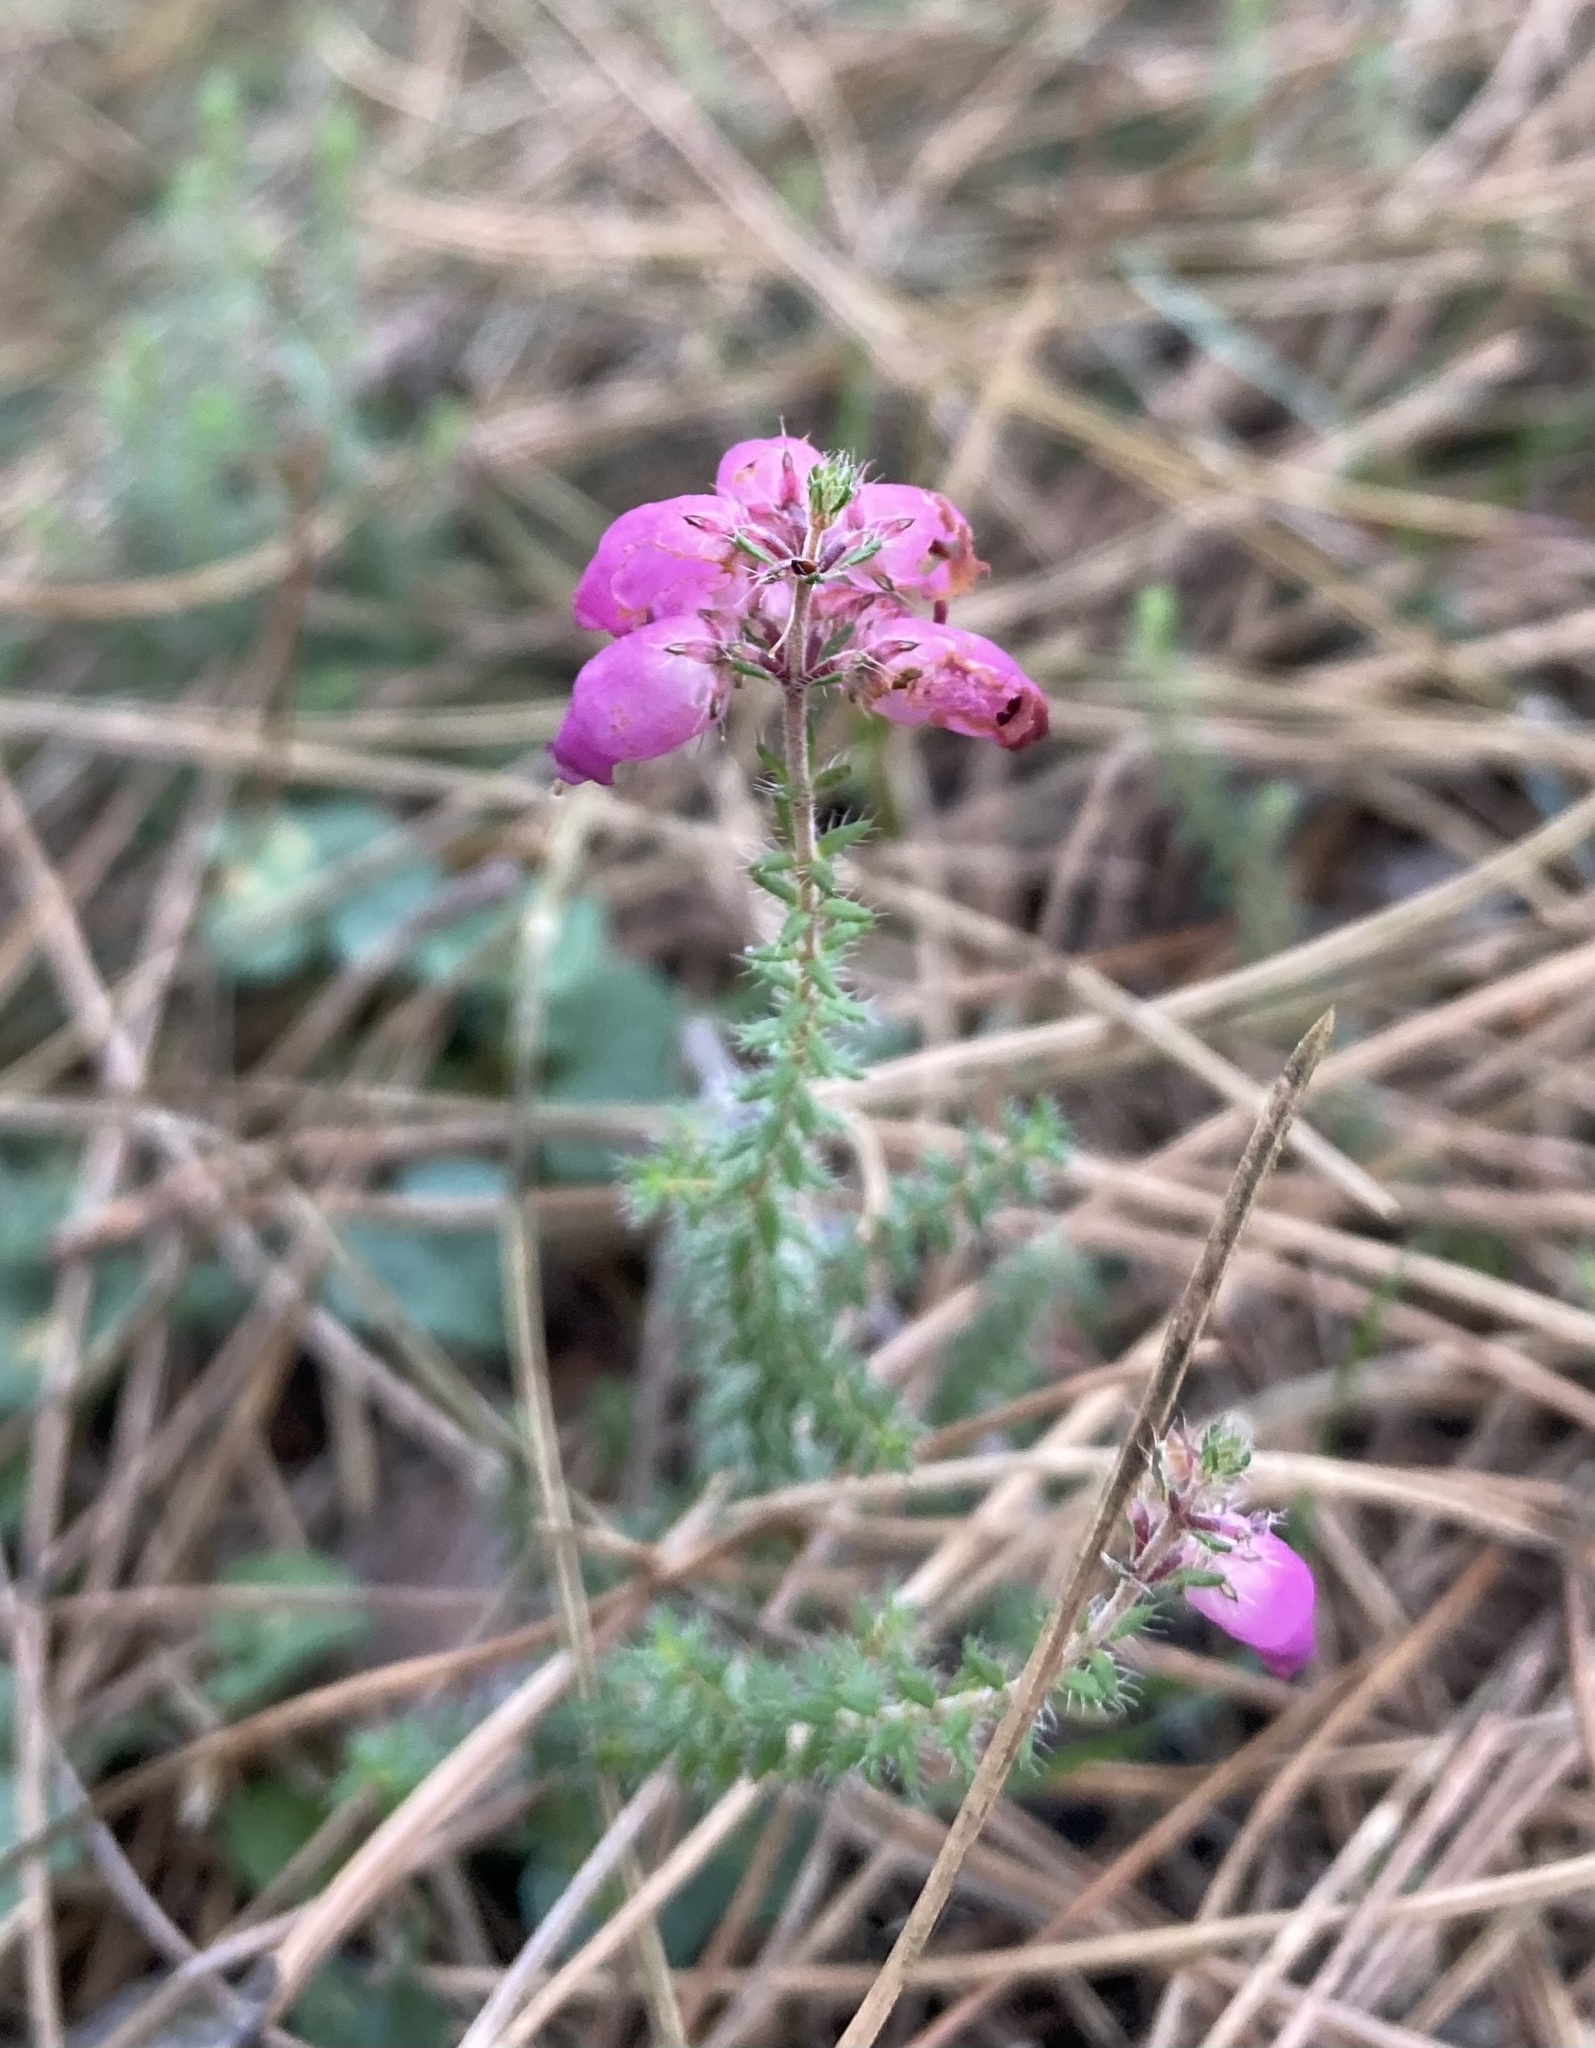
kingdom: Plantae
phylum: Tracheophyta
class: Magnoliopsida
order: Ericales
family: Ericaceae
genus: Erica
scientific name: Erica ciliaris
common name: Dorset heath
